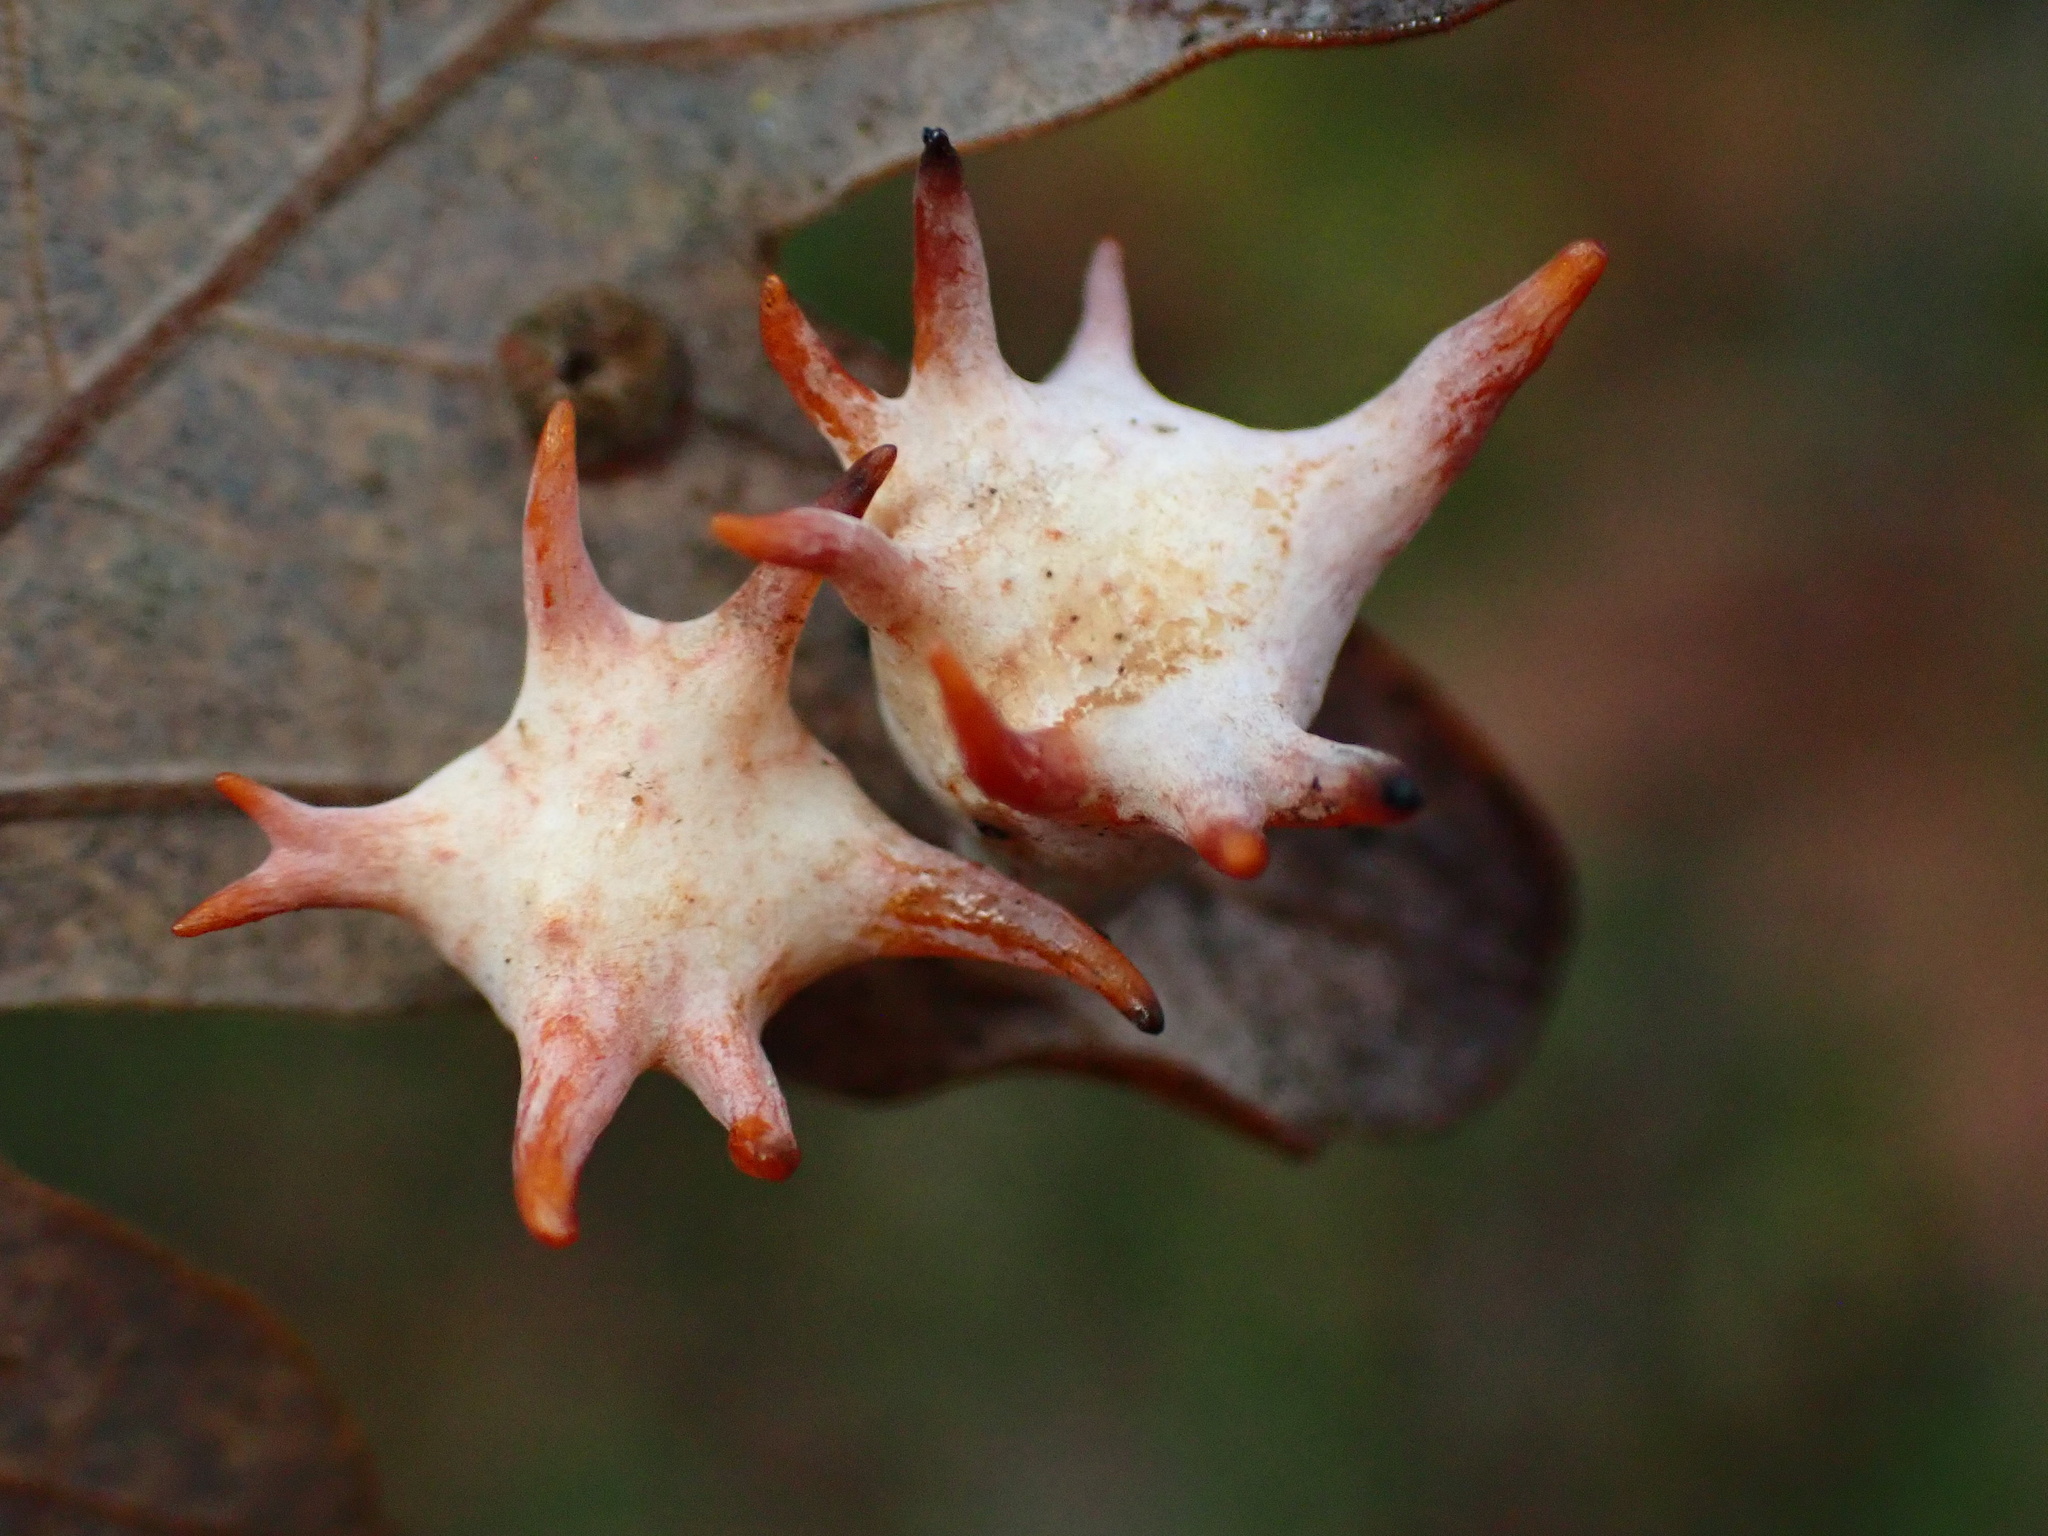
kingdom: Animalia
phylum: Arthropoda
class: Insecta
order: Hymenoptera
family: Cynipidae
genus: Cynips
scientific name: Cynips douglasi
